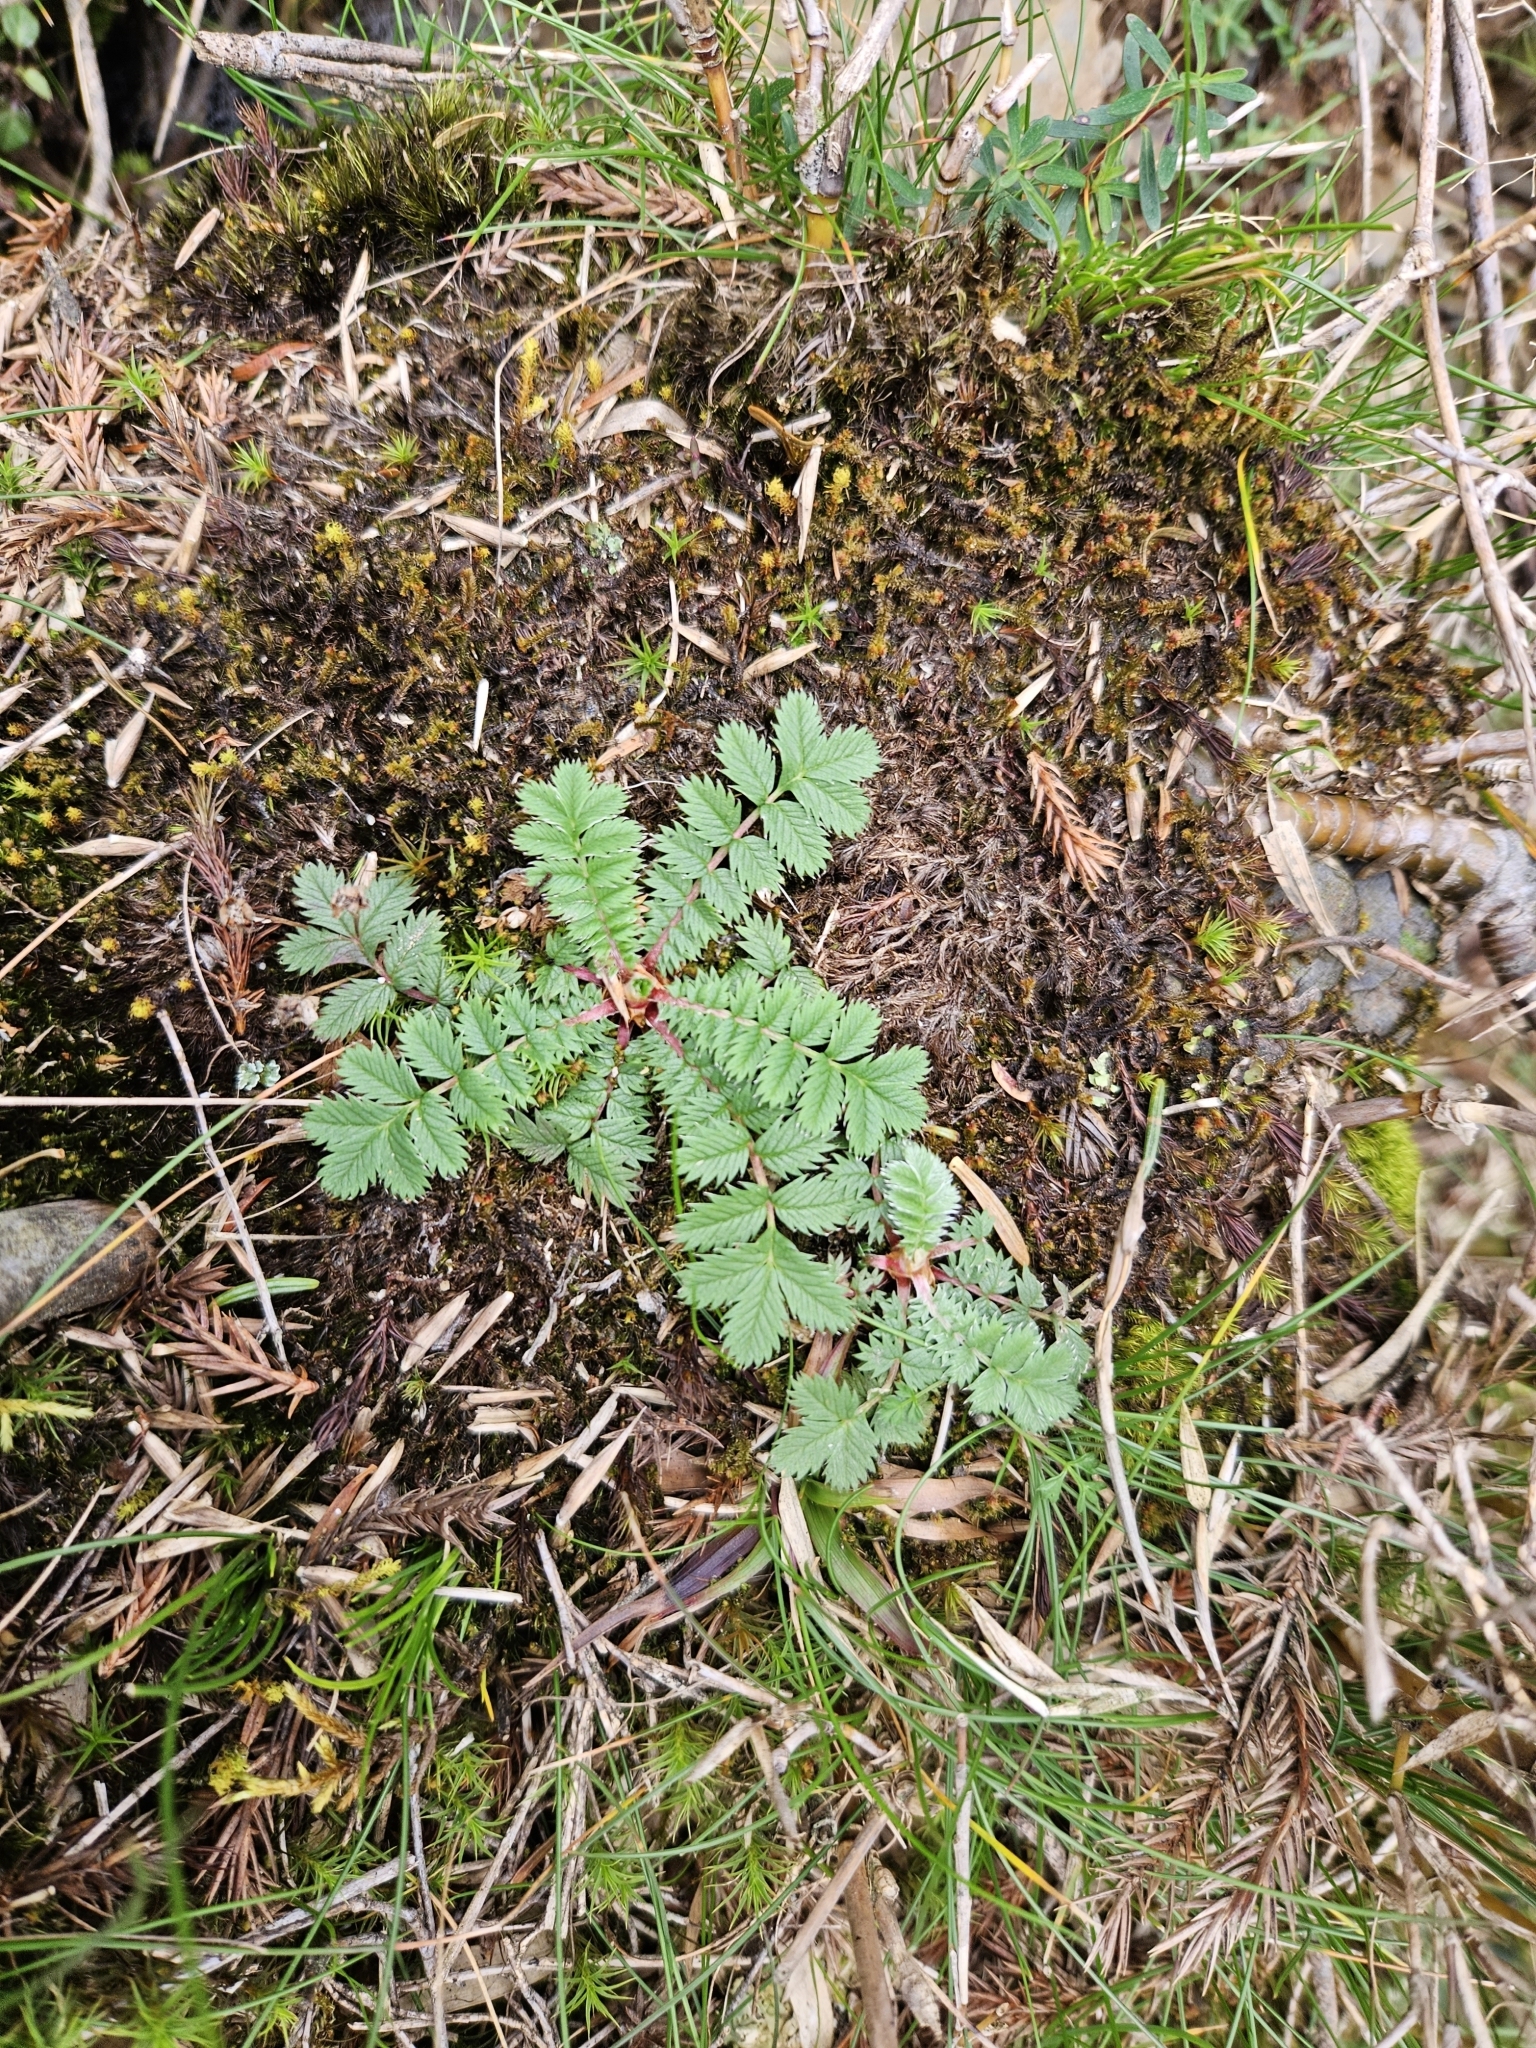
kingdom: Plantae
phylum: Tracheophyta
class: Magnoliopsida
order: Rosales
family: Rosaceae
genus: Argentina
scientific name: Argentina leuconota
